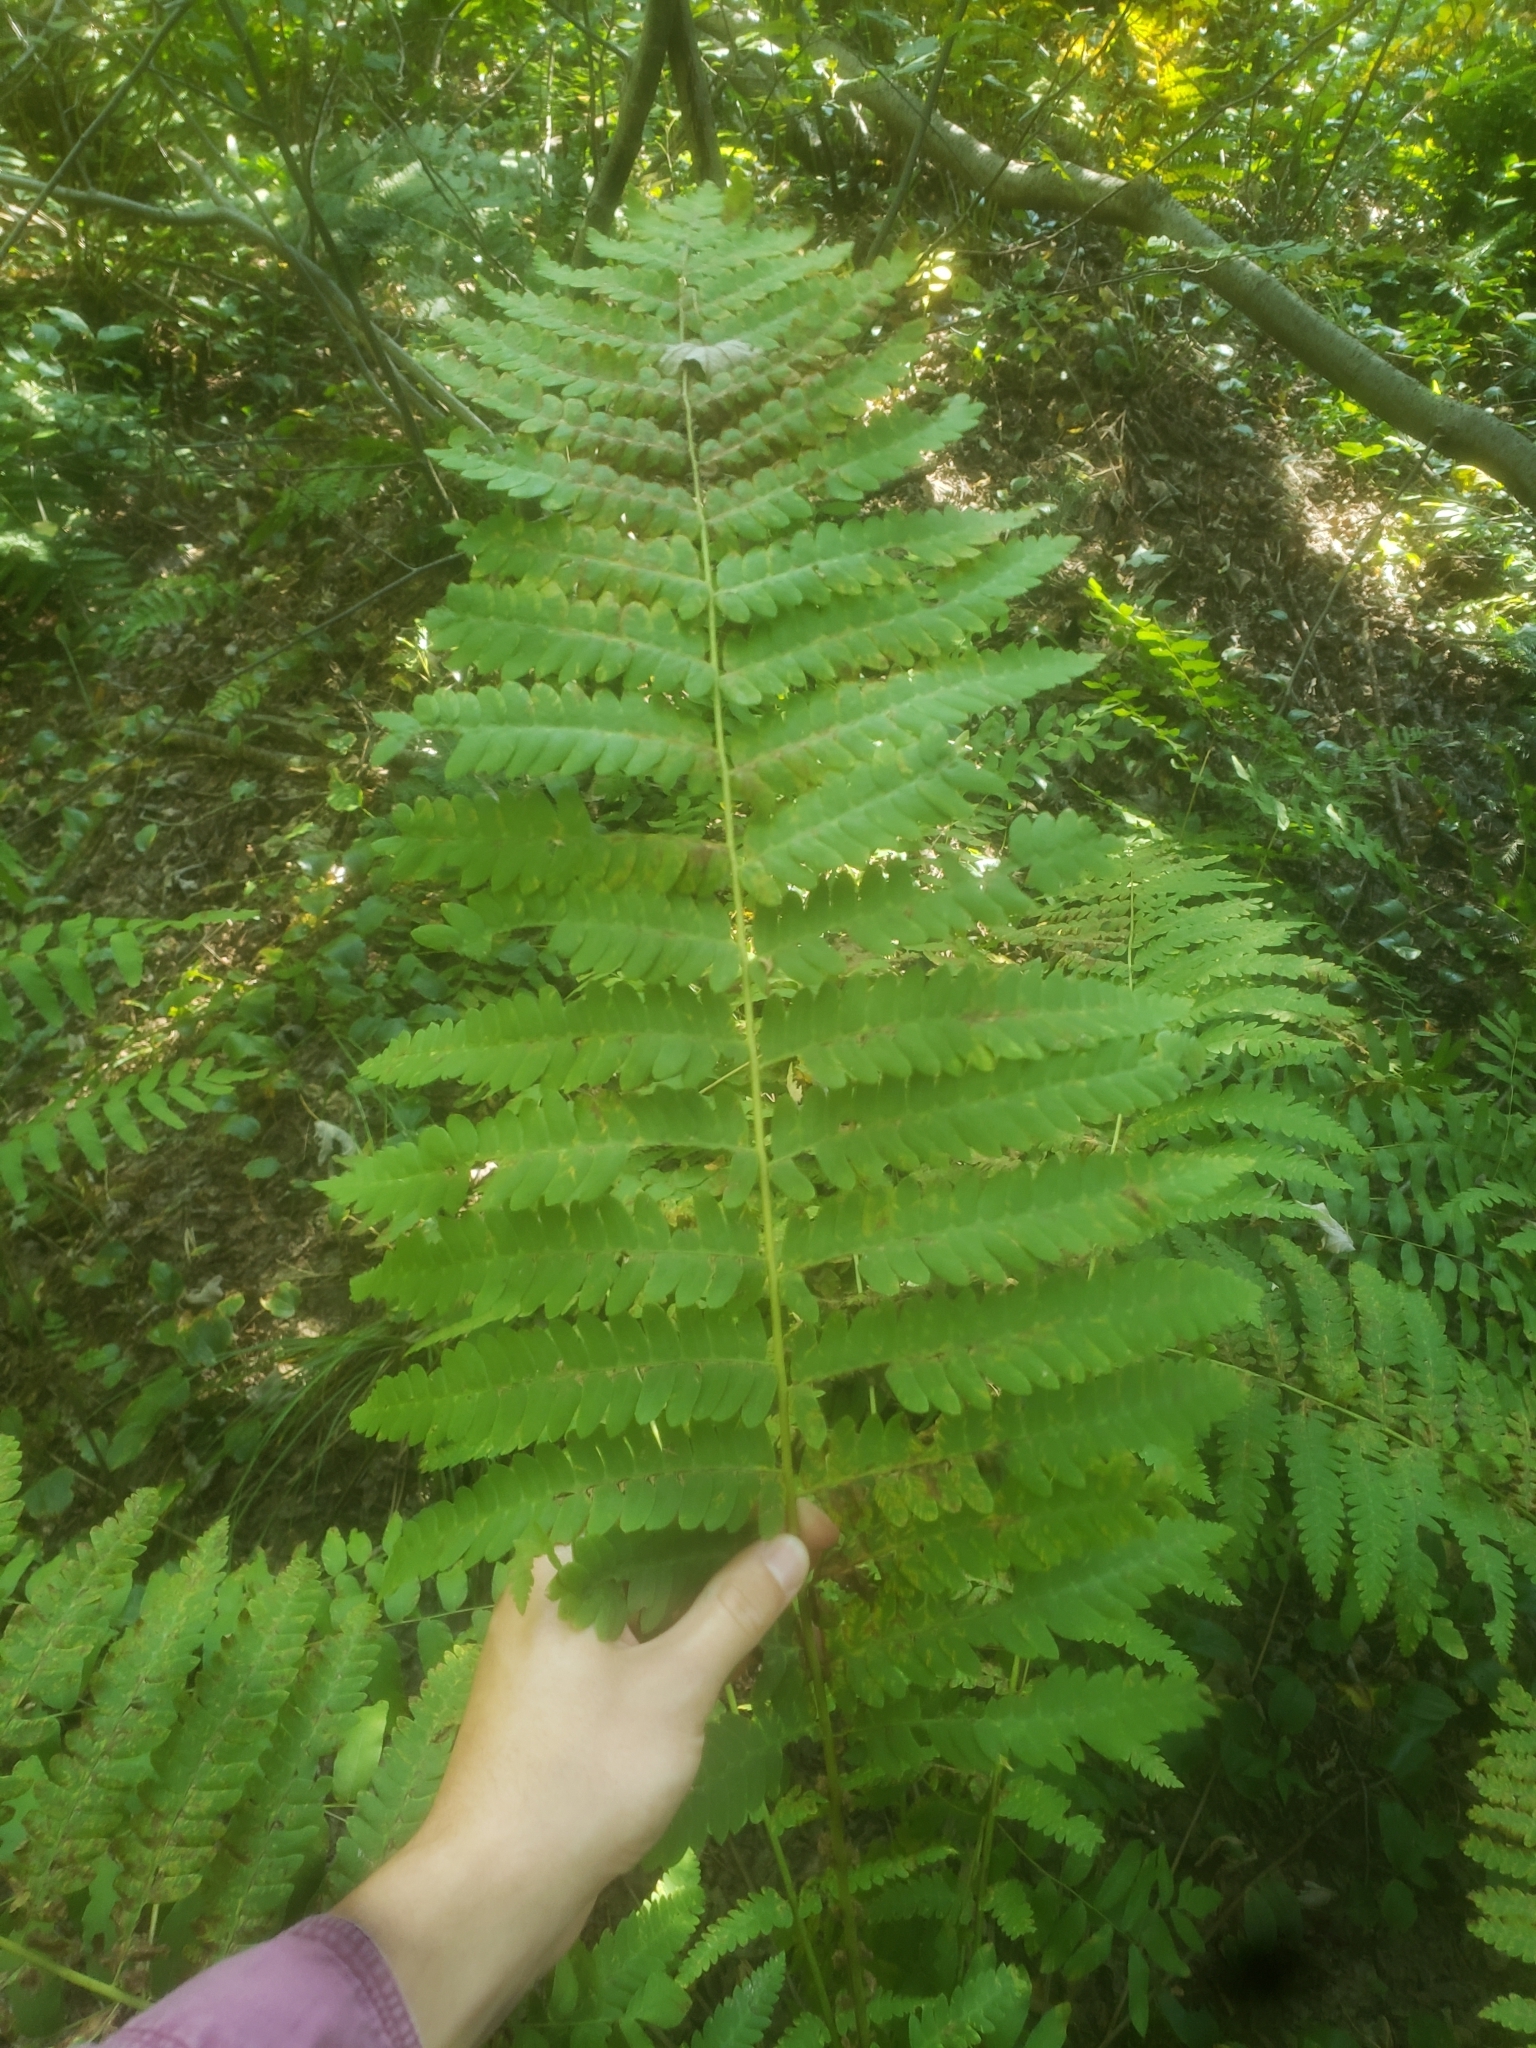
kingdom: Plantae
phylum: Tracheophyta
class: Polypodiopsida
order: Osmundales
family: Osmundaceae
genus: Claytosmunda
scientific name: Claytosmunda claytoniana
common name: Clayton's fern
